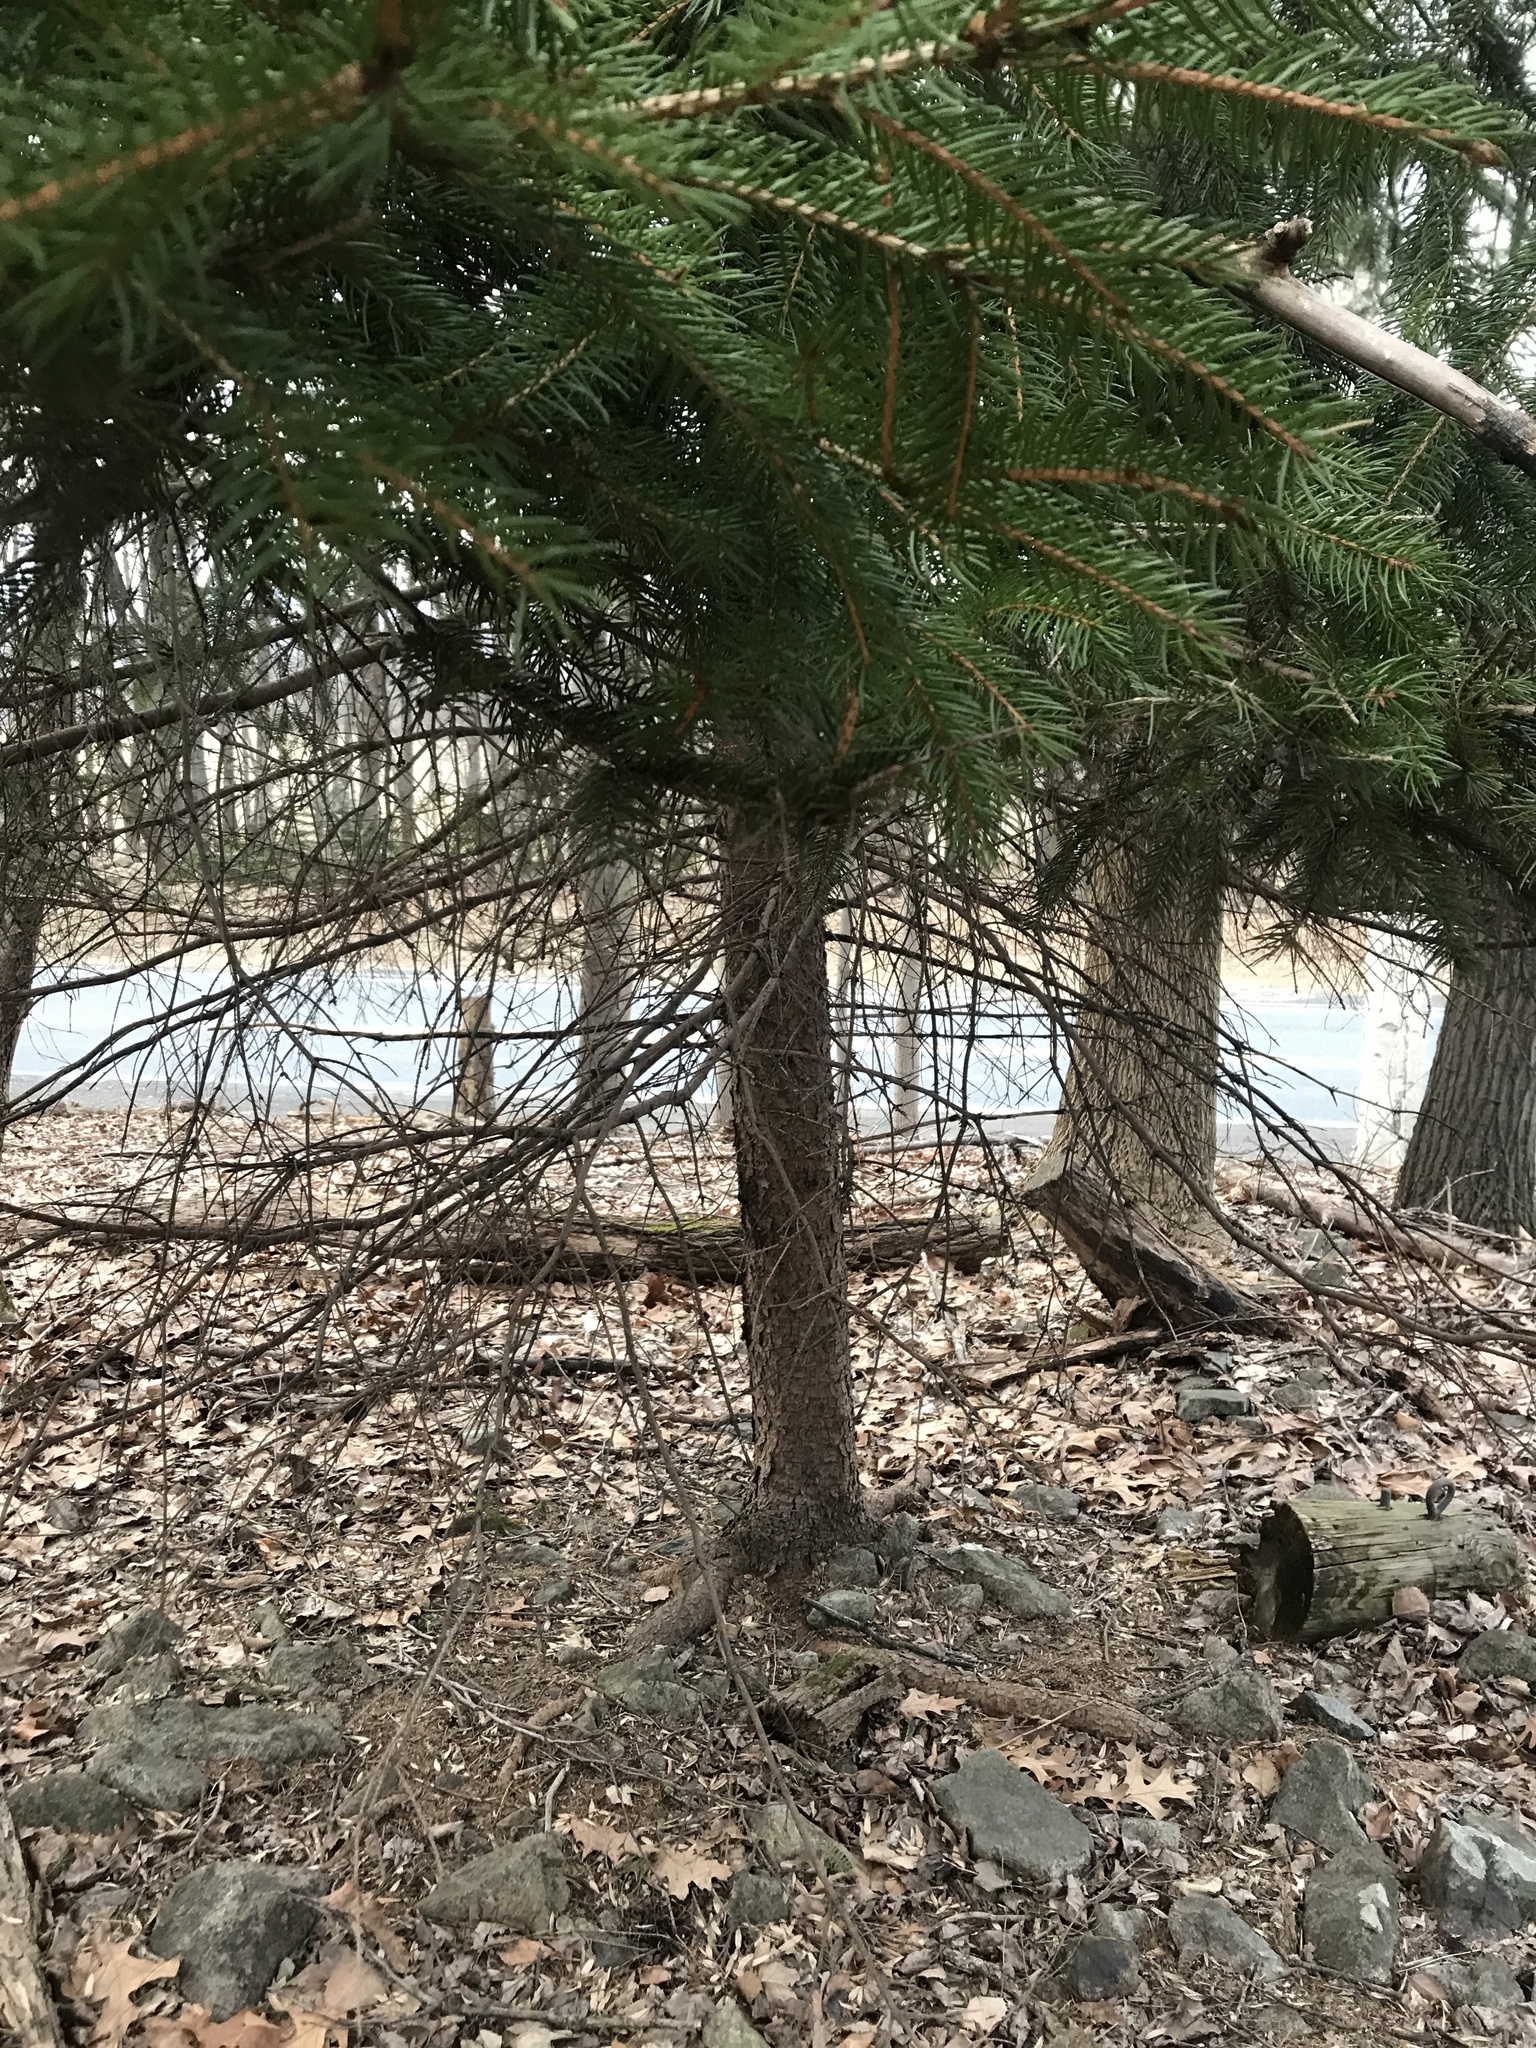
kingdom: Plantae
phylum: Tracheophyta
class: Pinopsida
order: Pinales
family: Pinaceae
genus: Picea
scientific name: Picea abies
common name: Norway spruce
